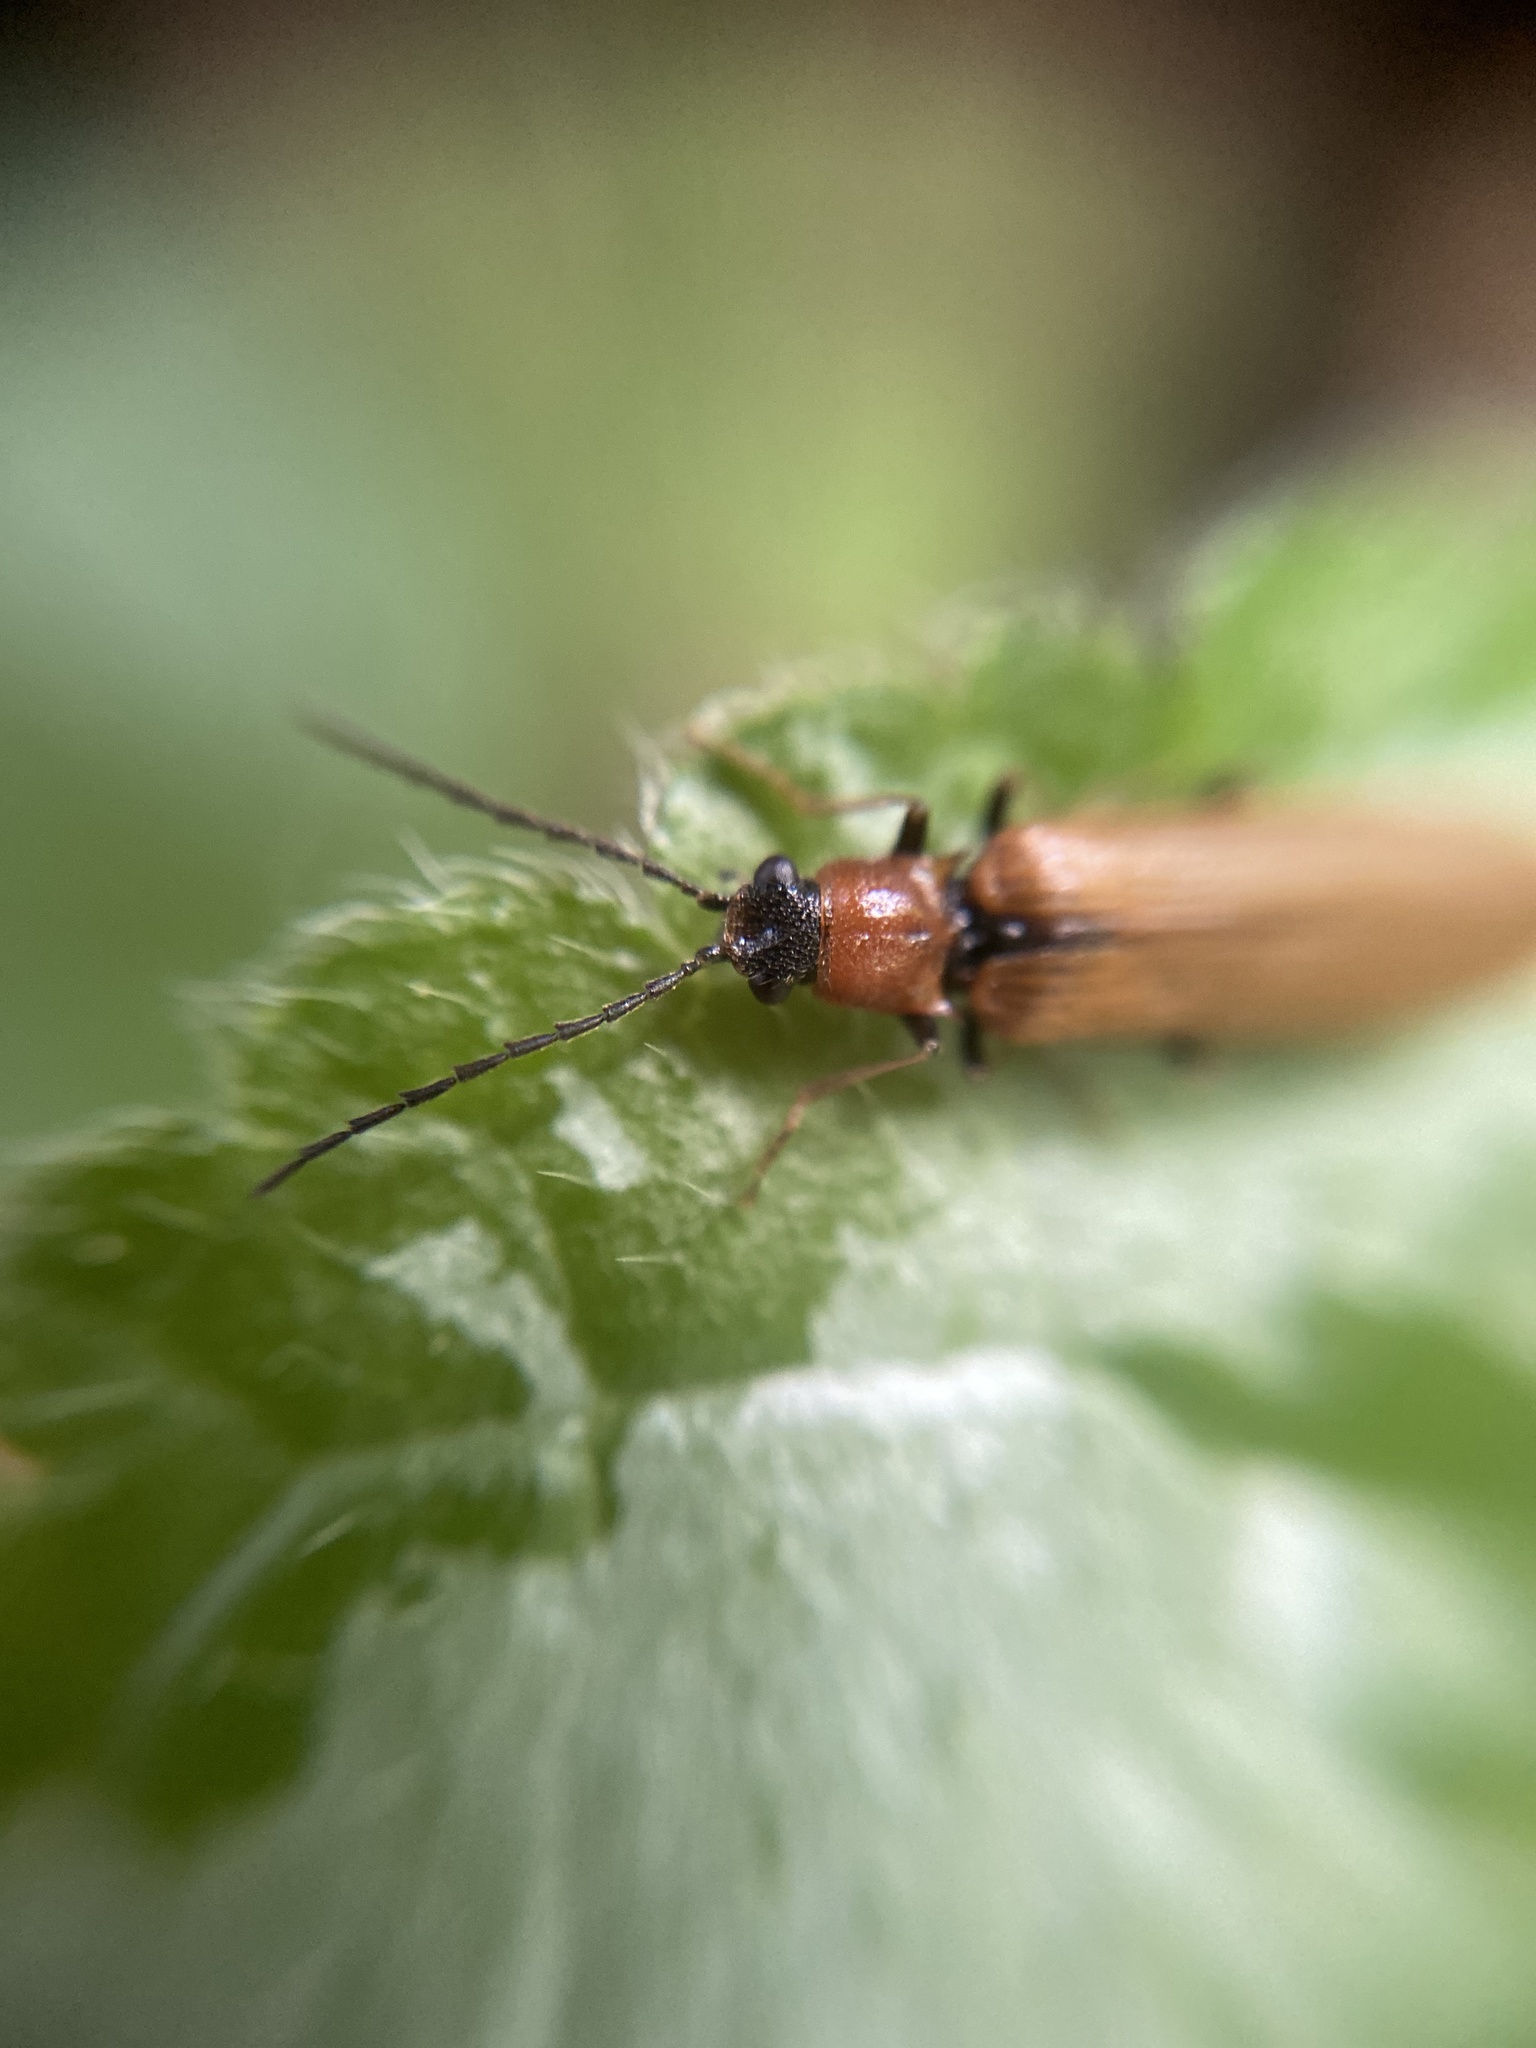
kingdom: Animalia
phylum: Arthropoda
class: Insecta
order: Coleoptera
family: Elateridae
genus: Denticollis
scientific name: Denticollis linearis
